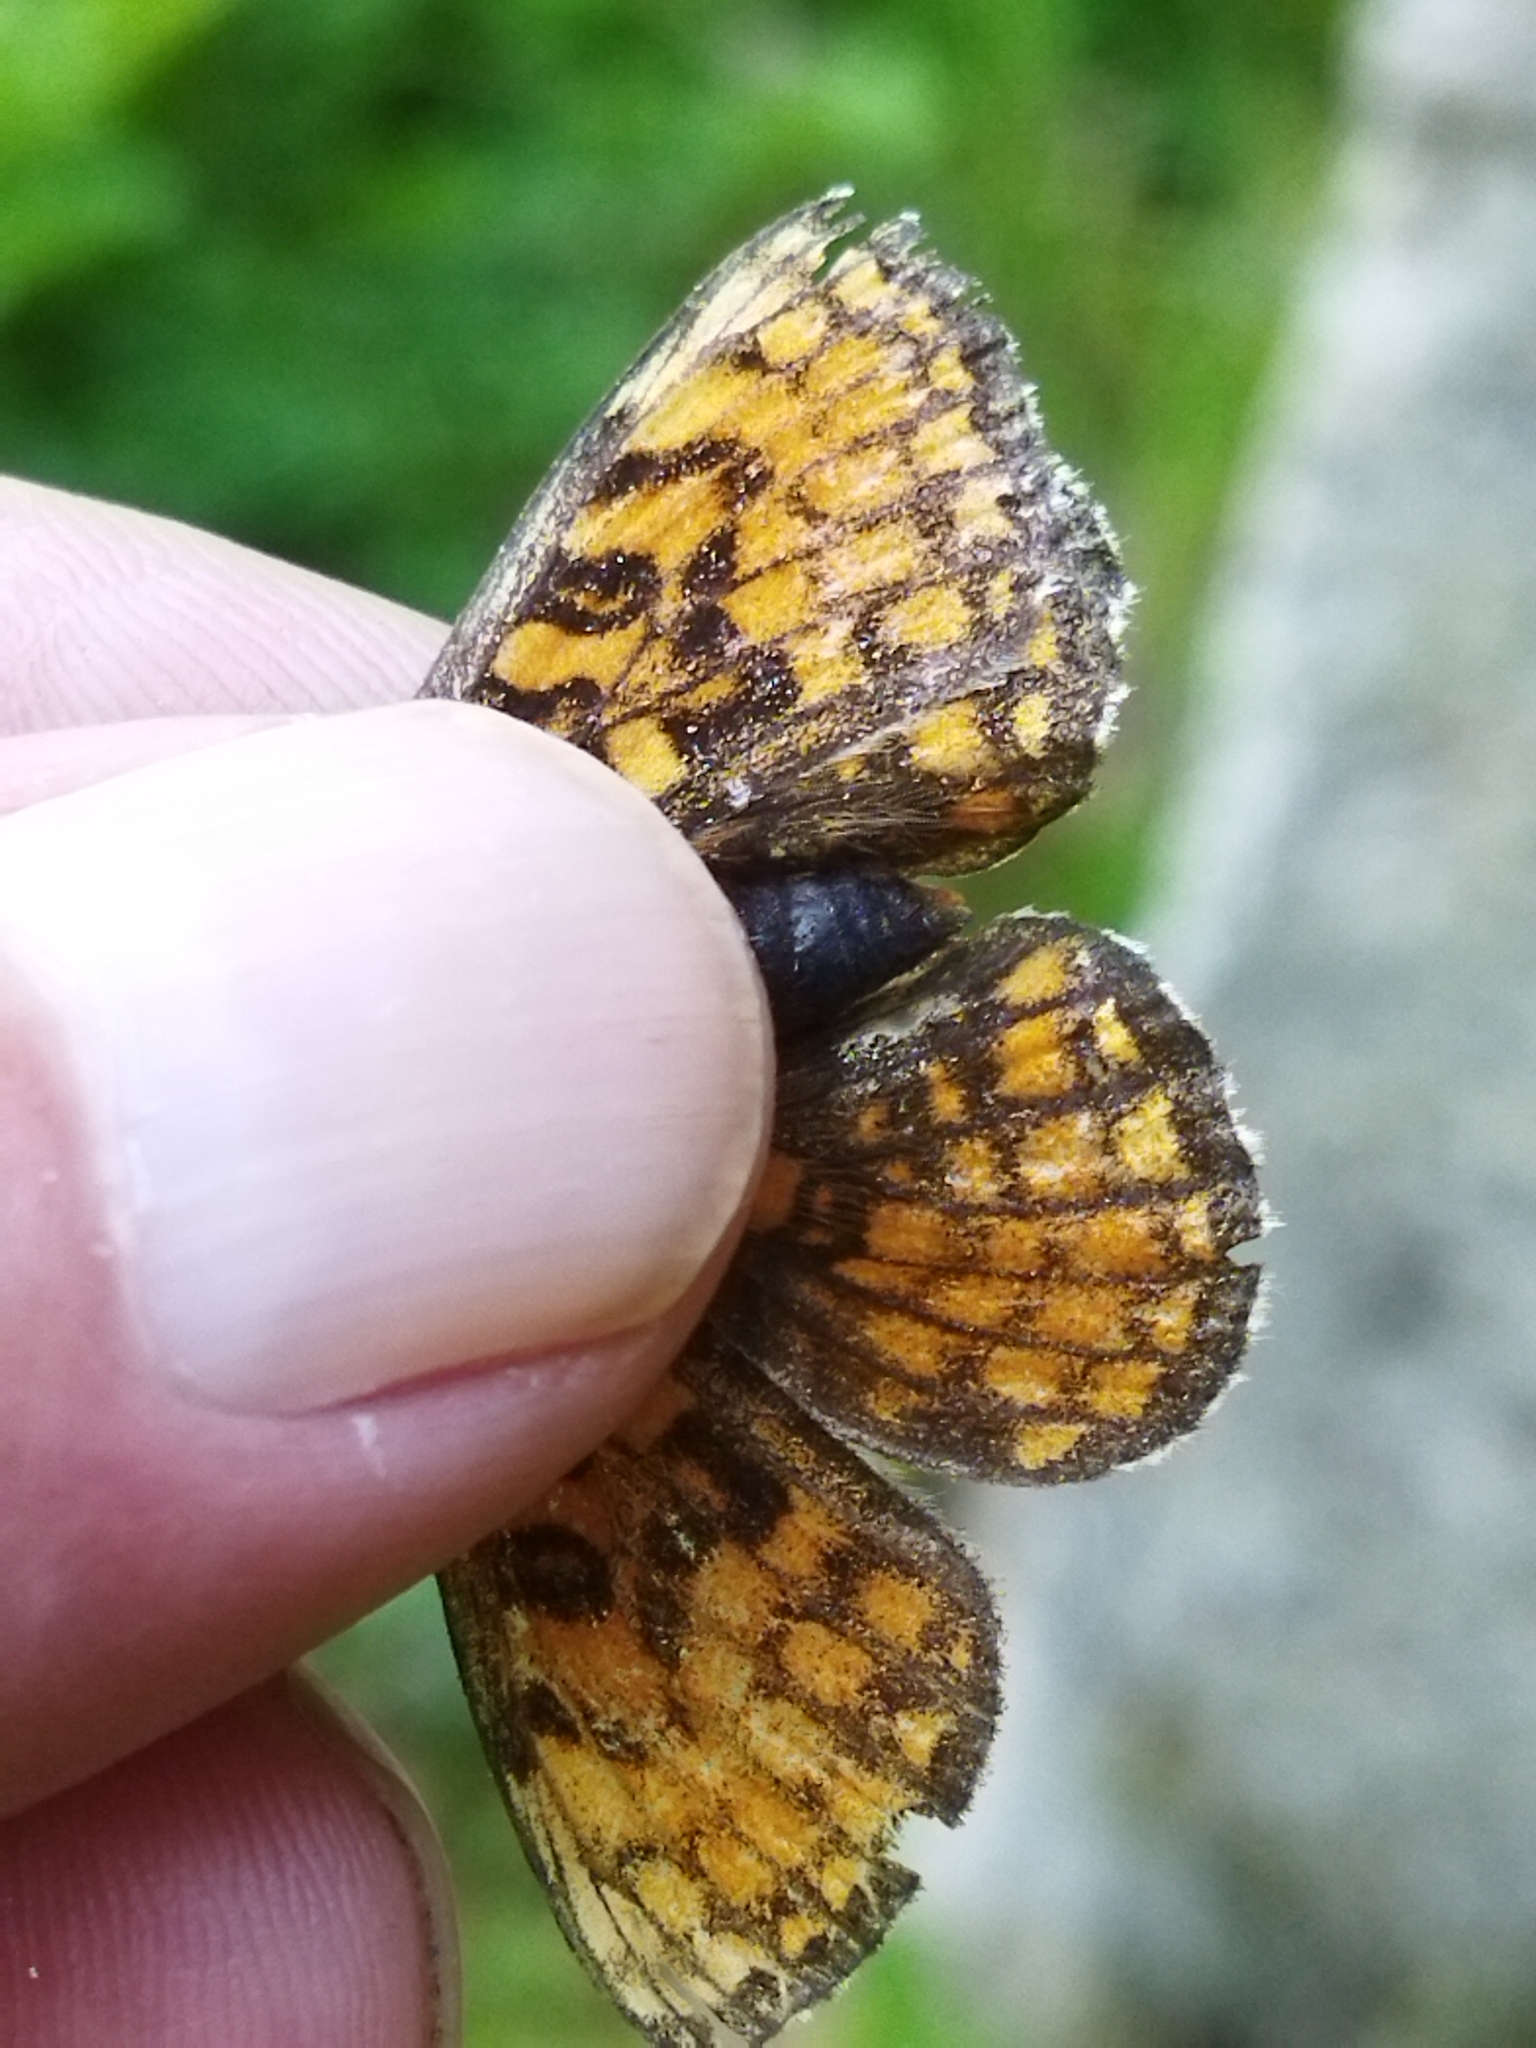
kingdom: Animalia
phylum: Arthropoda
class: Insecta
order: Lepidoptera
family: Nymphalidae
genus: Melitaea
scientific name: Melitaea athalia
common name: Heath fritillary
